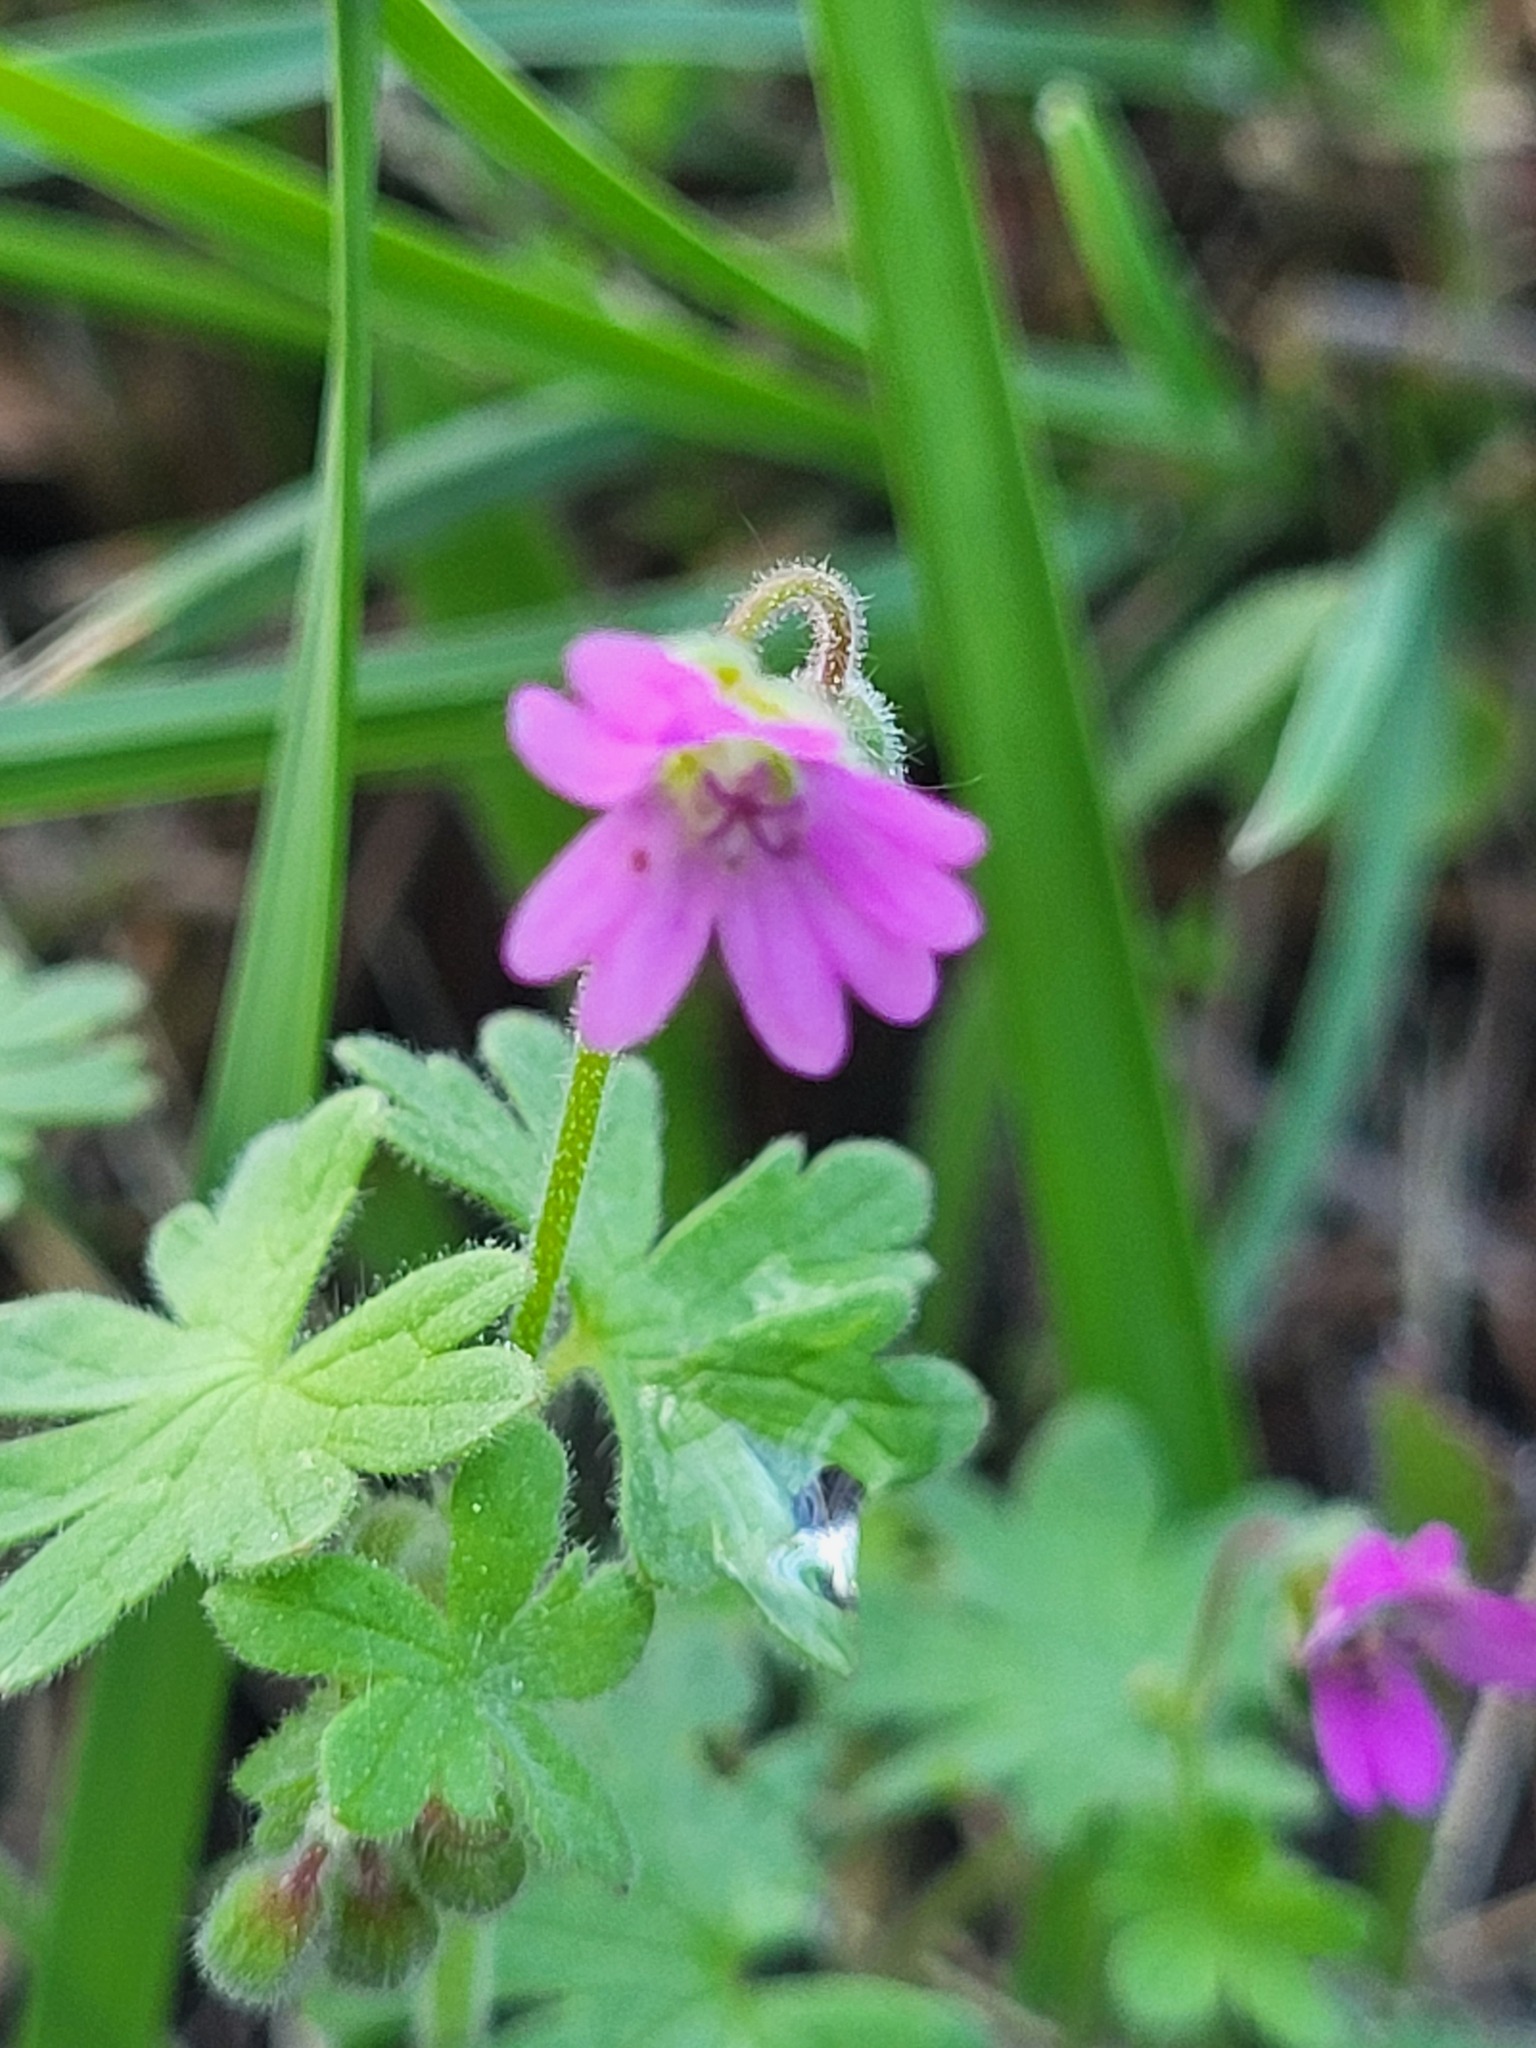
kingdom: Plantae
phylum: Tracheophyta
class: Magnoliopsida
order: Geraniales
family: Geraniaceae
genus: Geranium
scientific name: Geranium molle
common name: Dove's-foot crane's-bill
